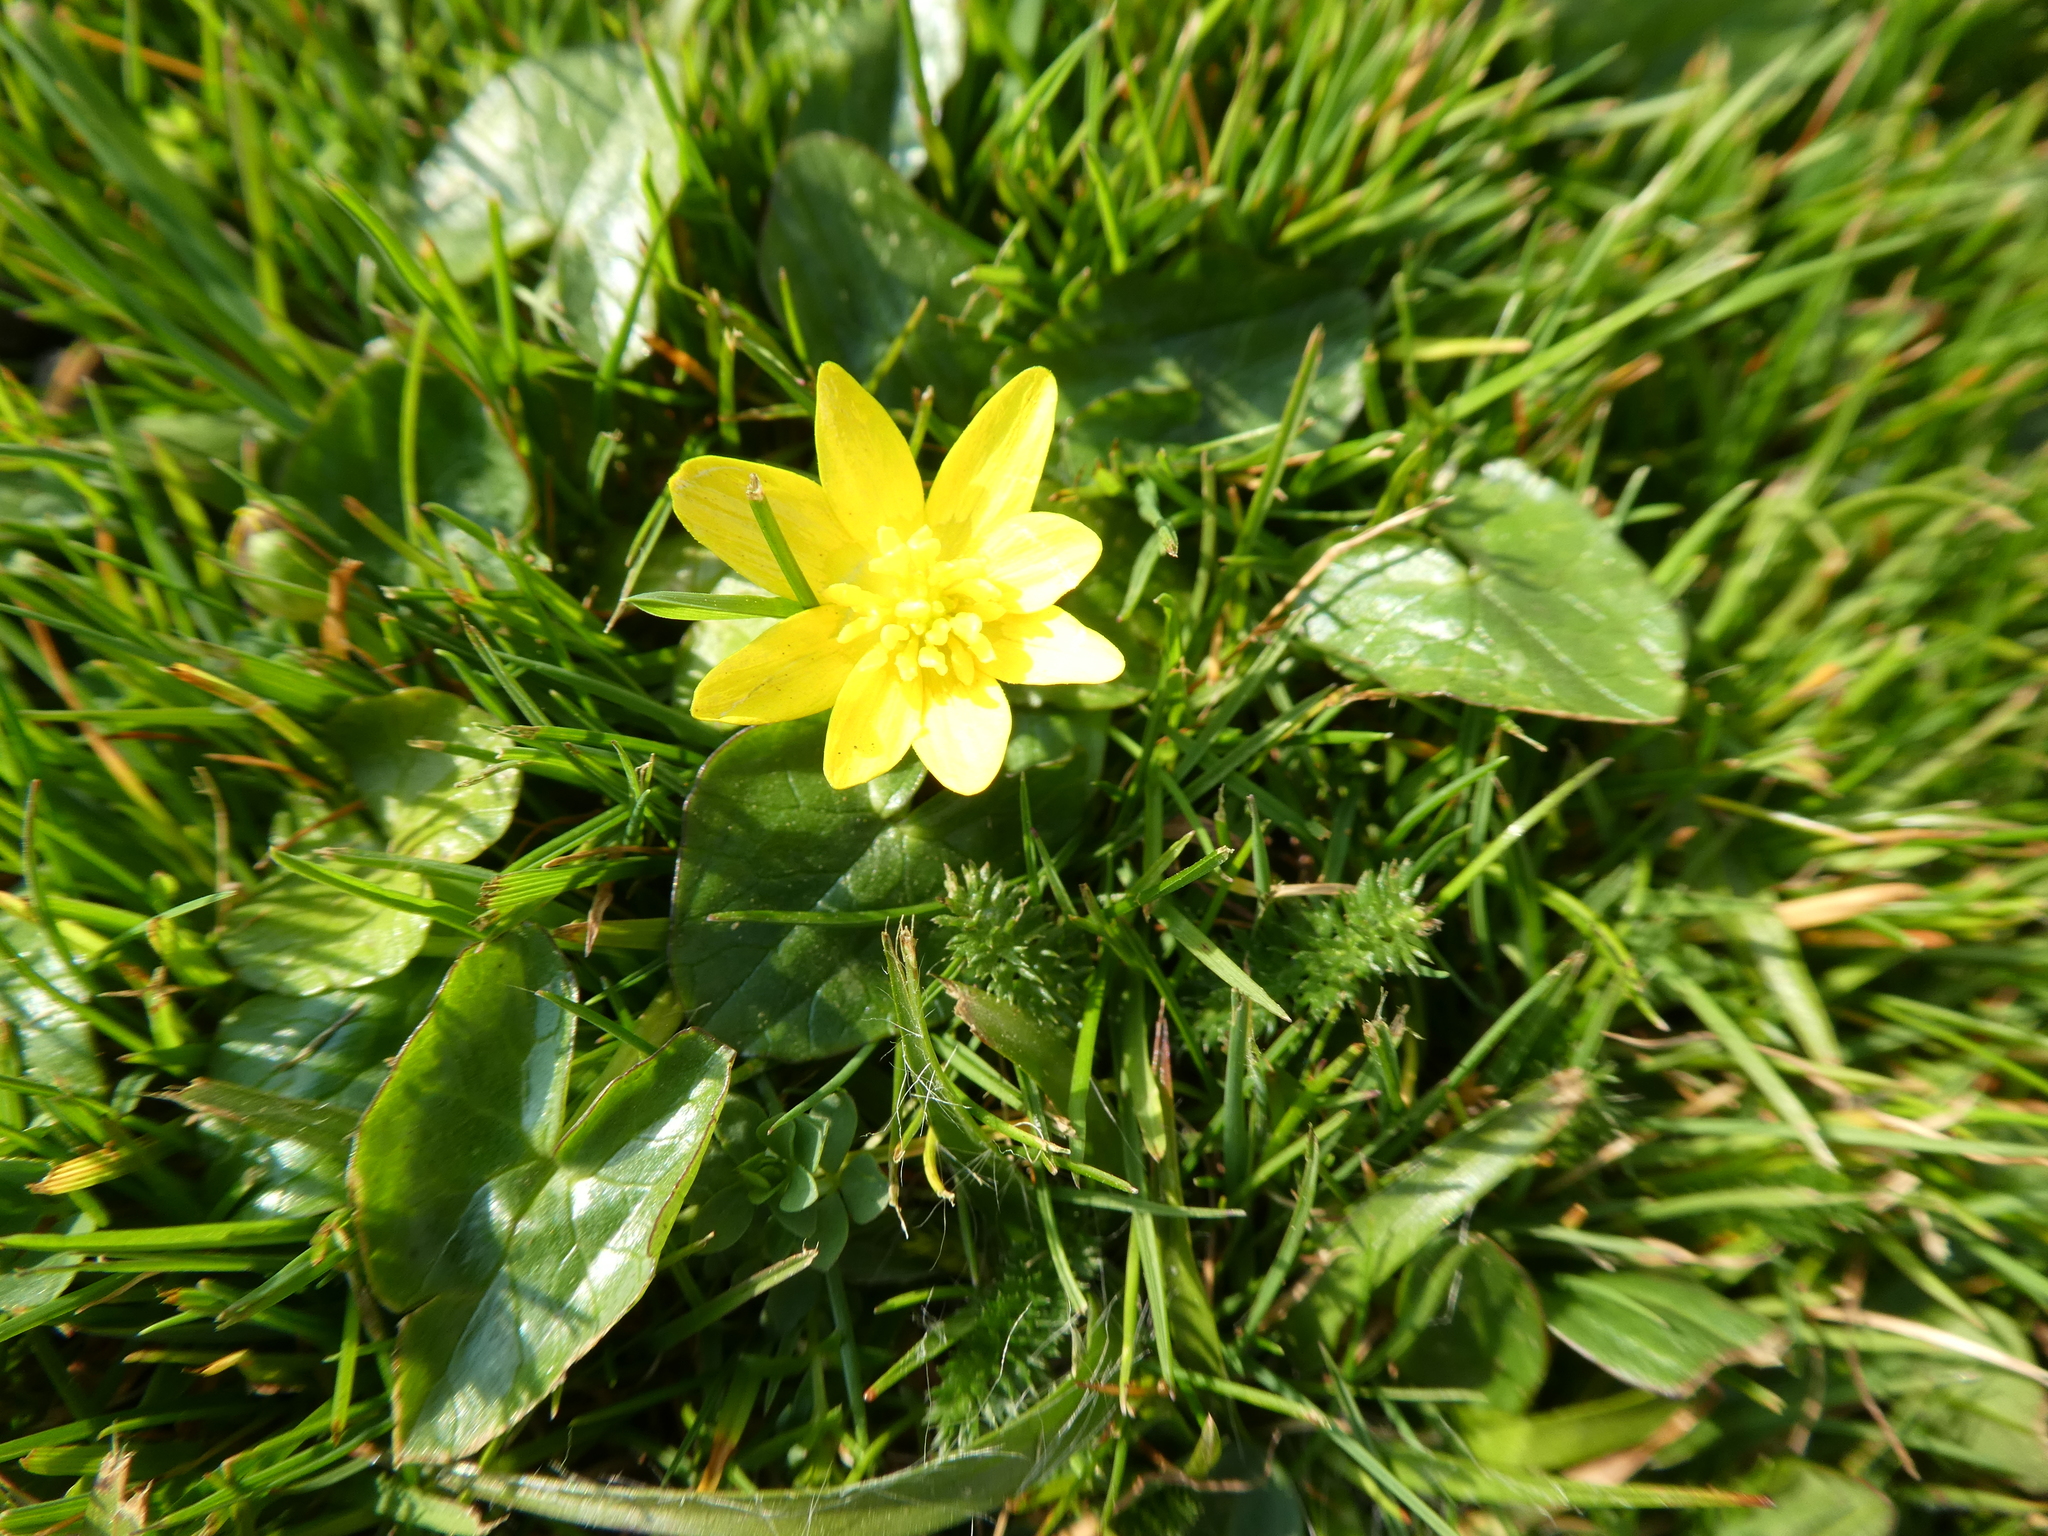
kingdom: Plantae
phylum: Tracheophyta
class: Magnoliopsida
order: Ranunculales
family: Ranunculaceae
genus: Ficaria
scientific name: Ficaria verna
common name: Lesser celandine
